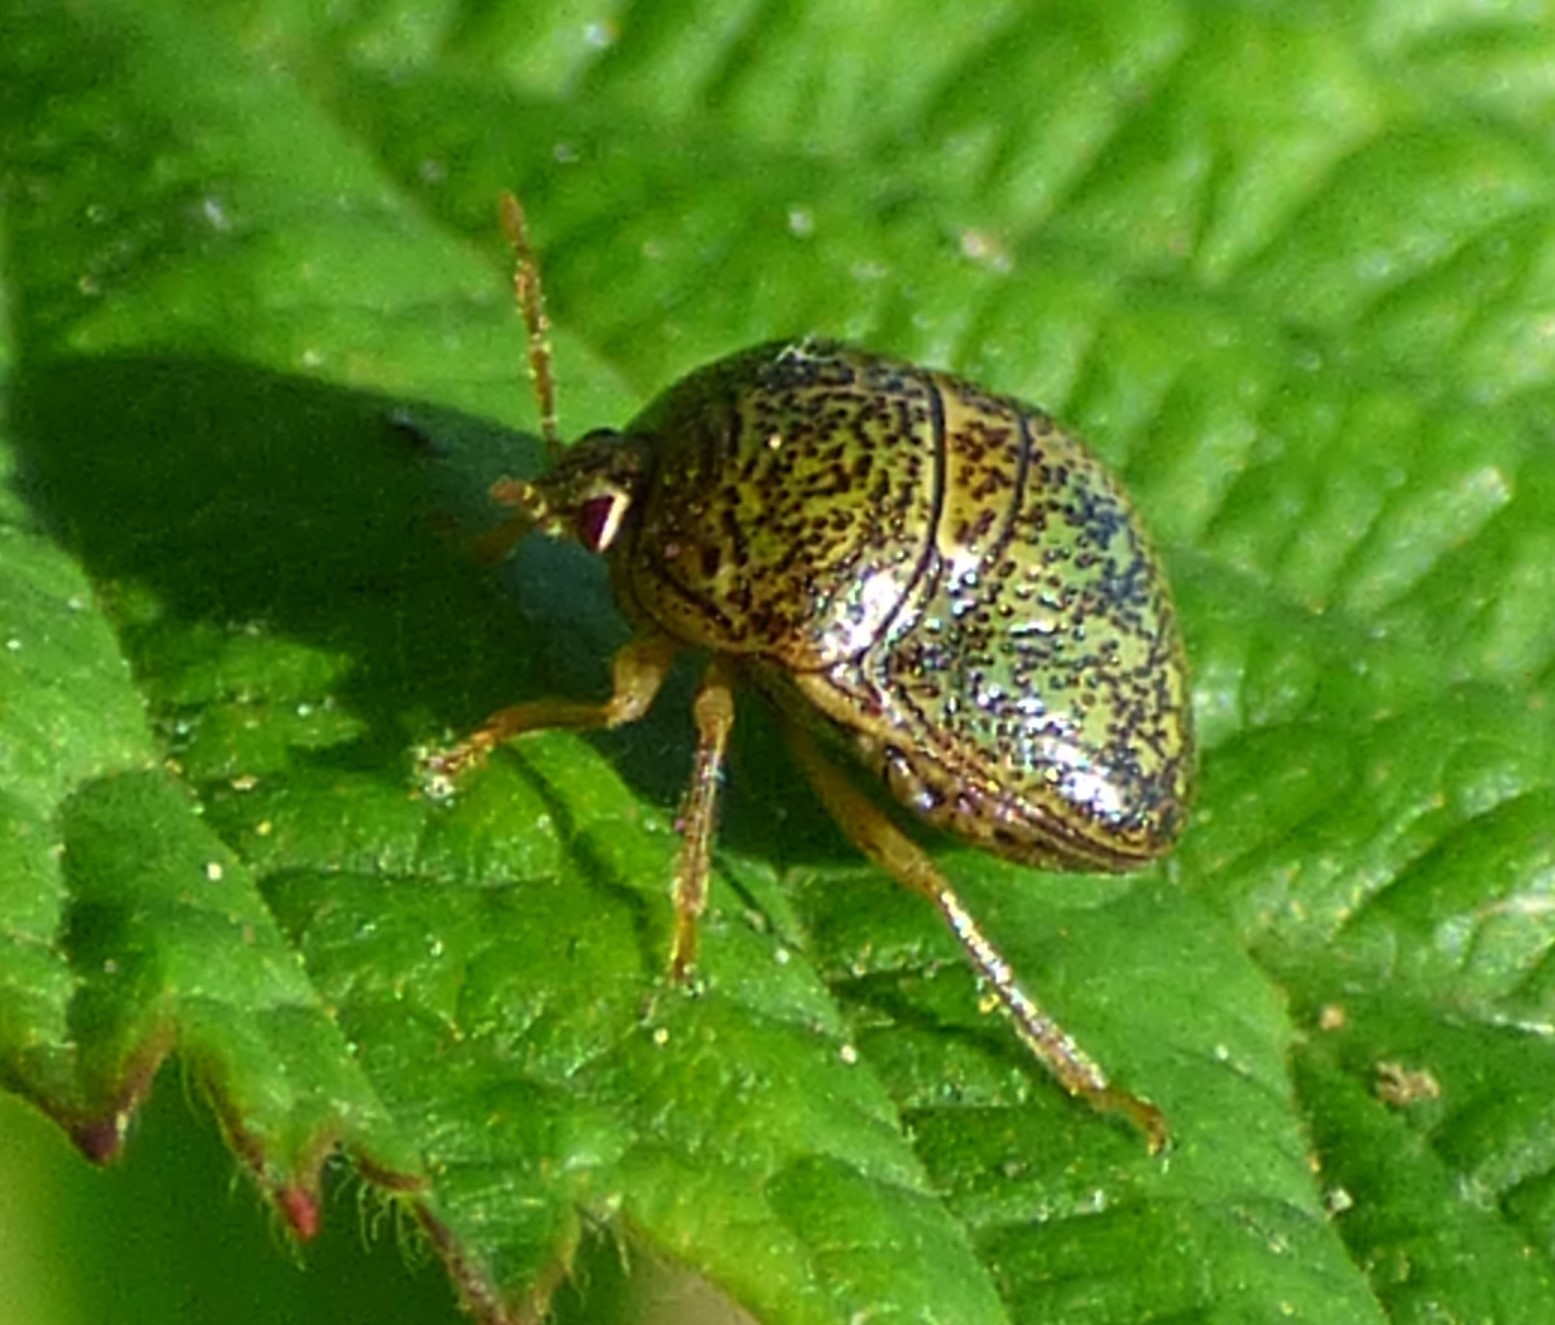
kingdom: Animalia
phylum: Arthropoda
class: Insecta
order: Hemiptera
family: Plataspidae
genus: Megacopta
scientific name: Megacopta cribraria
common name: Bean plataspid
